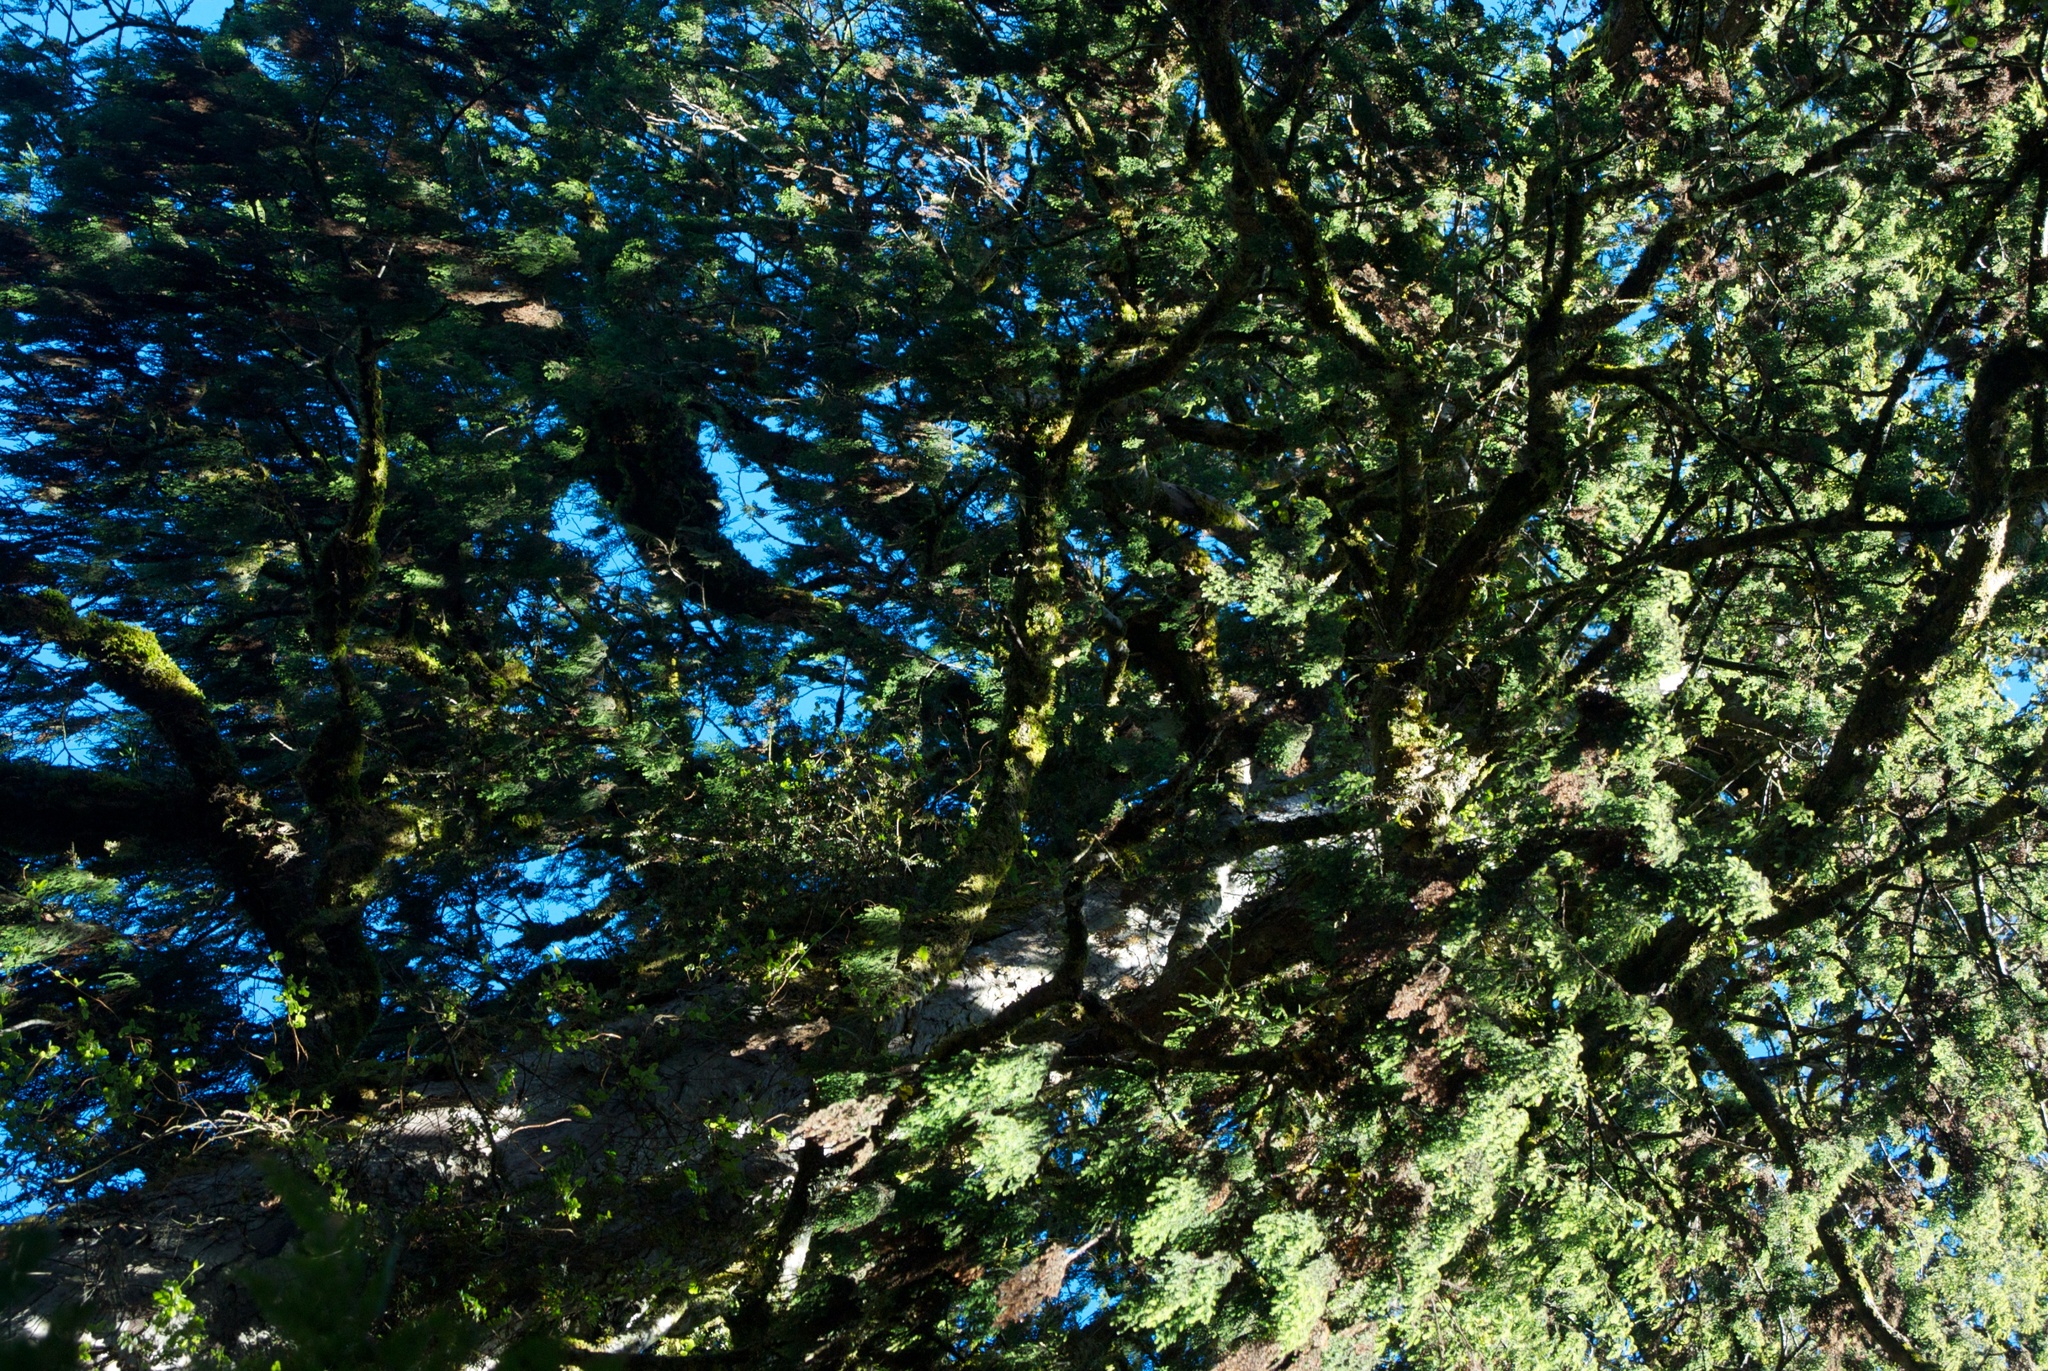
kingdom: Plantae
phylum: Tracheophyta
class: Pinopsida
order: Pinales
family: Podocarpaceae
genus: Dacrydium
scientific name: Dacrydium cupressinum
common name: Red pine
